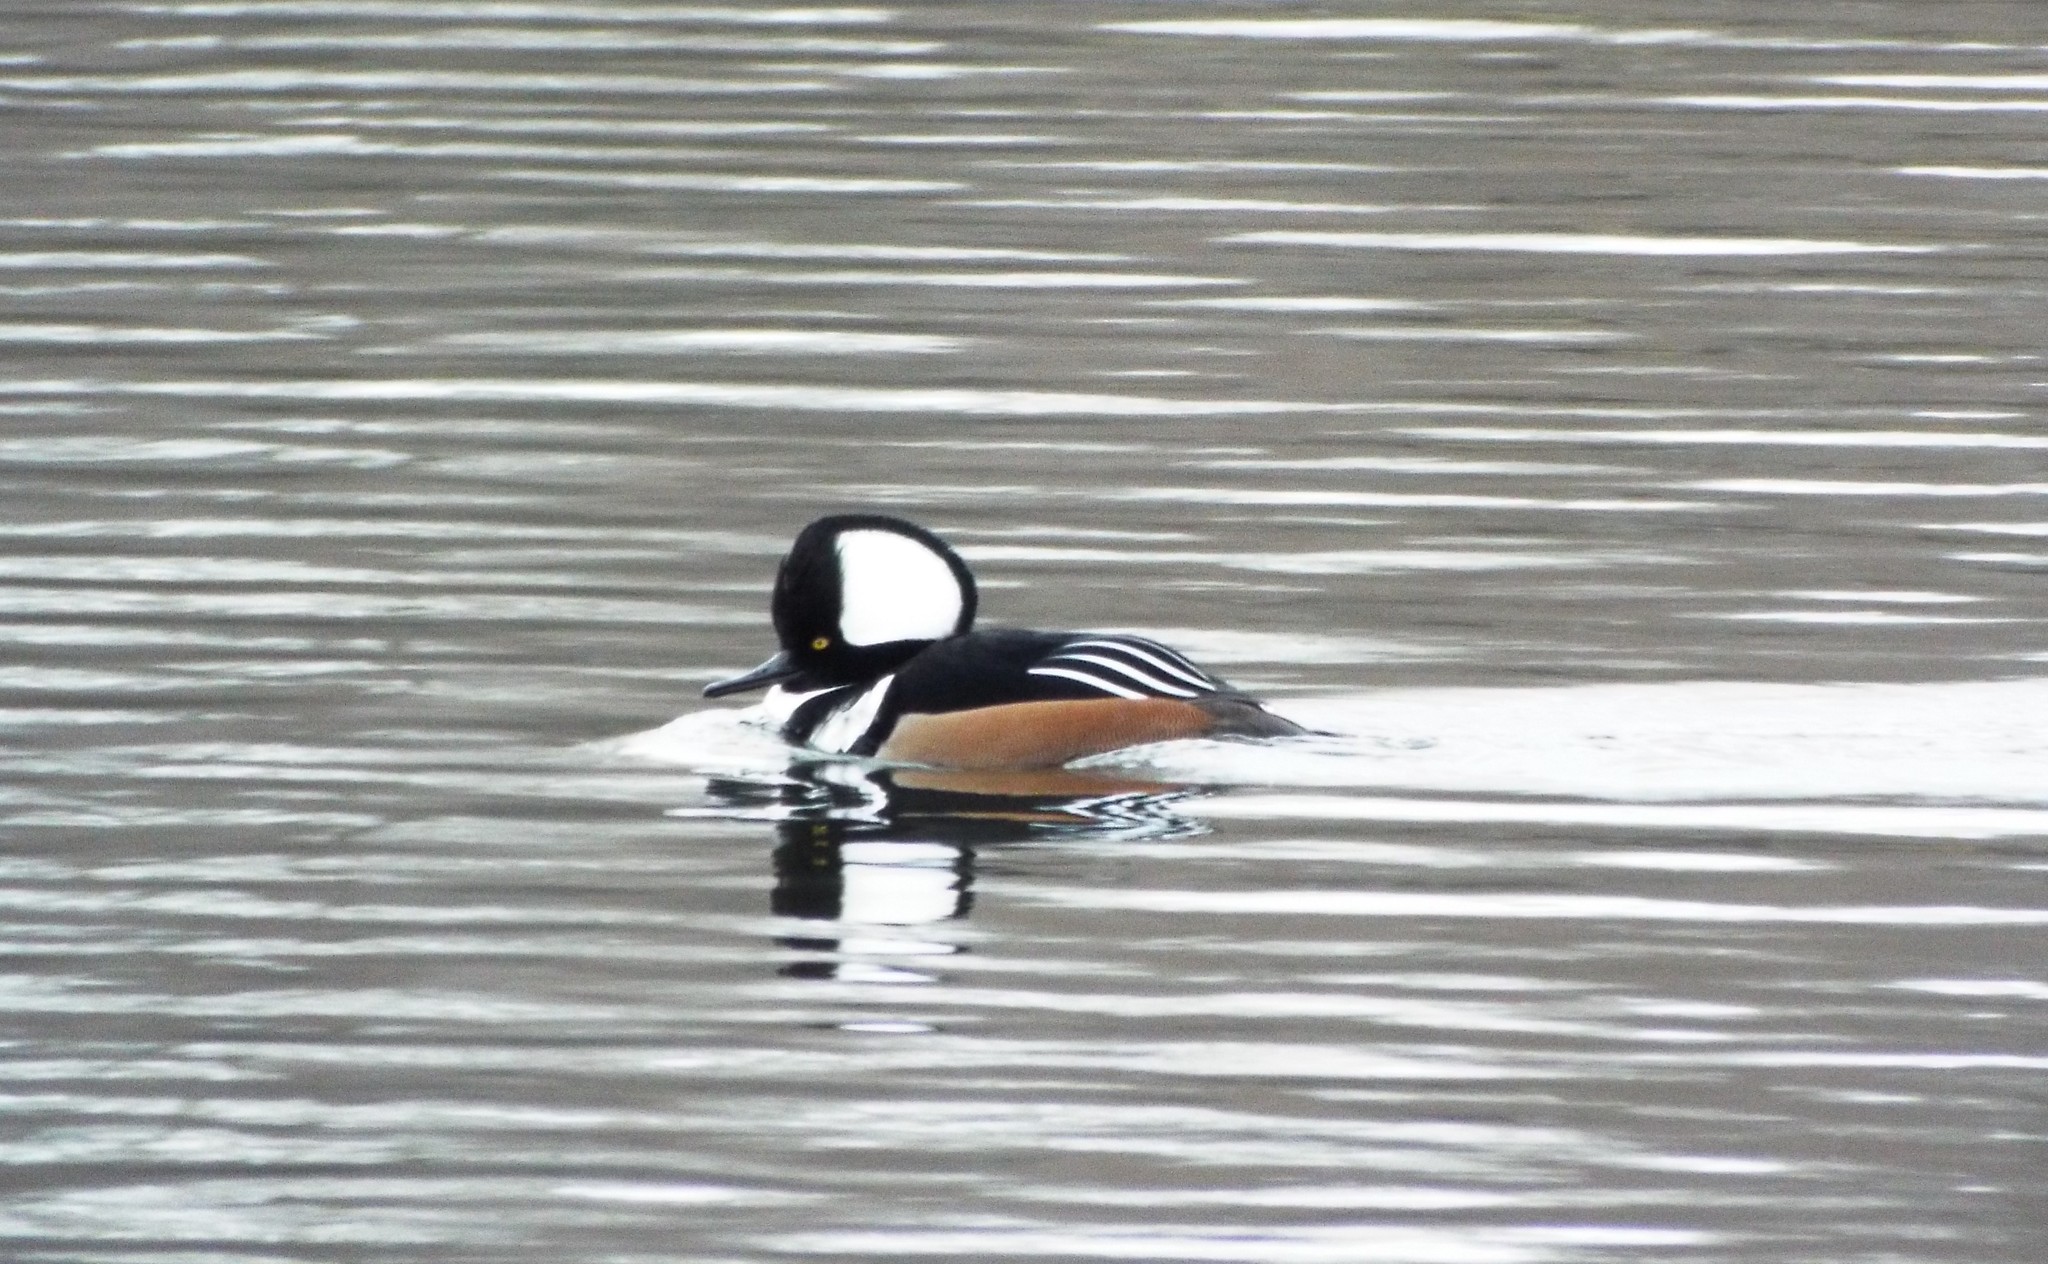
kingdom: Animalia
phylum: Chordata
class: Aves
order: Anseriformes
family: Anatidae
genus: Lophodytes
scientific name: Lophodytes cucullatus
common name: Hooded merganser
